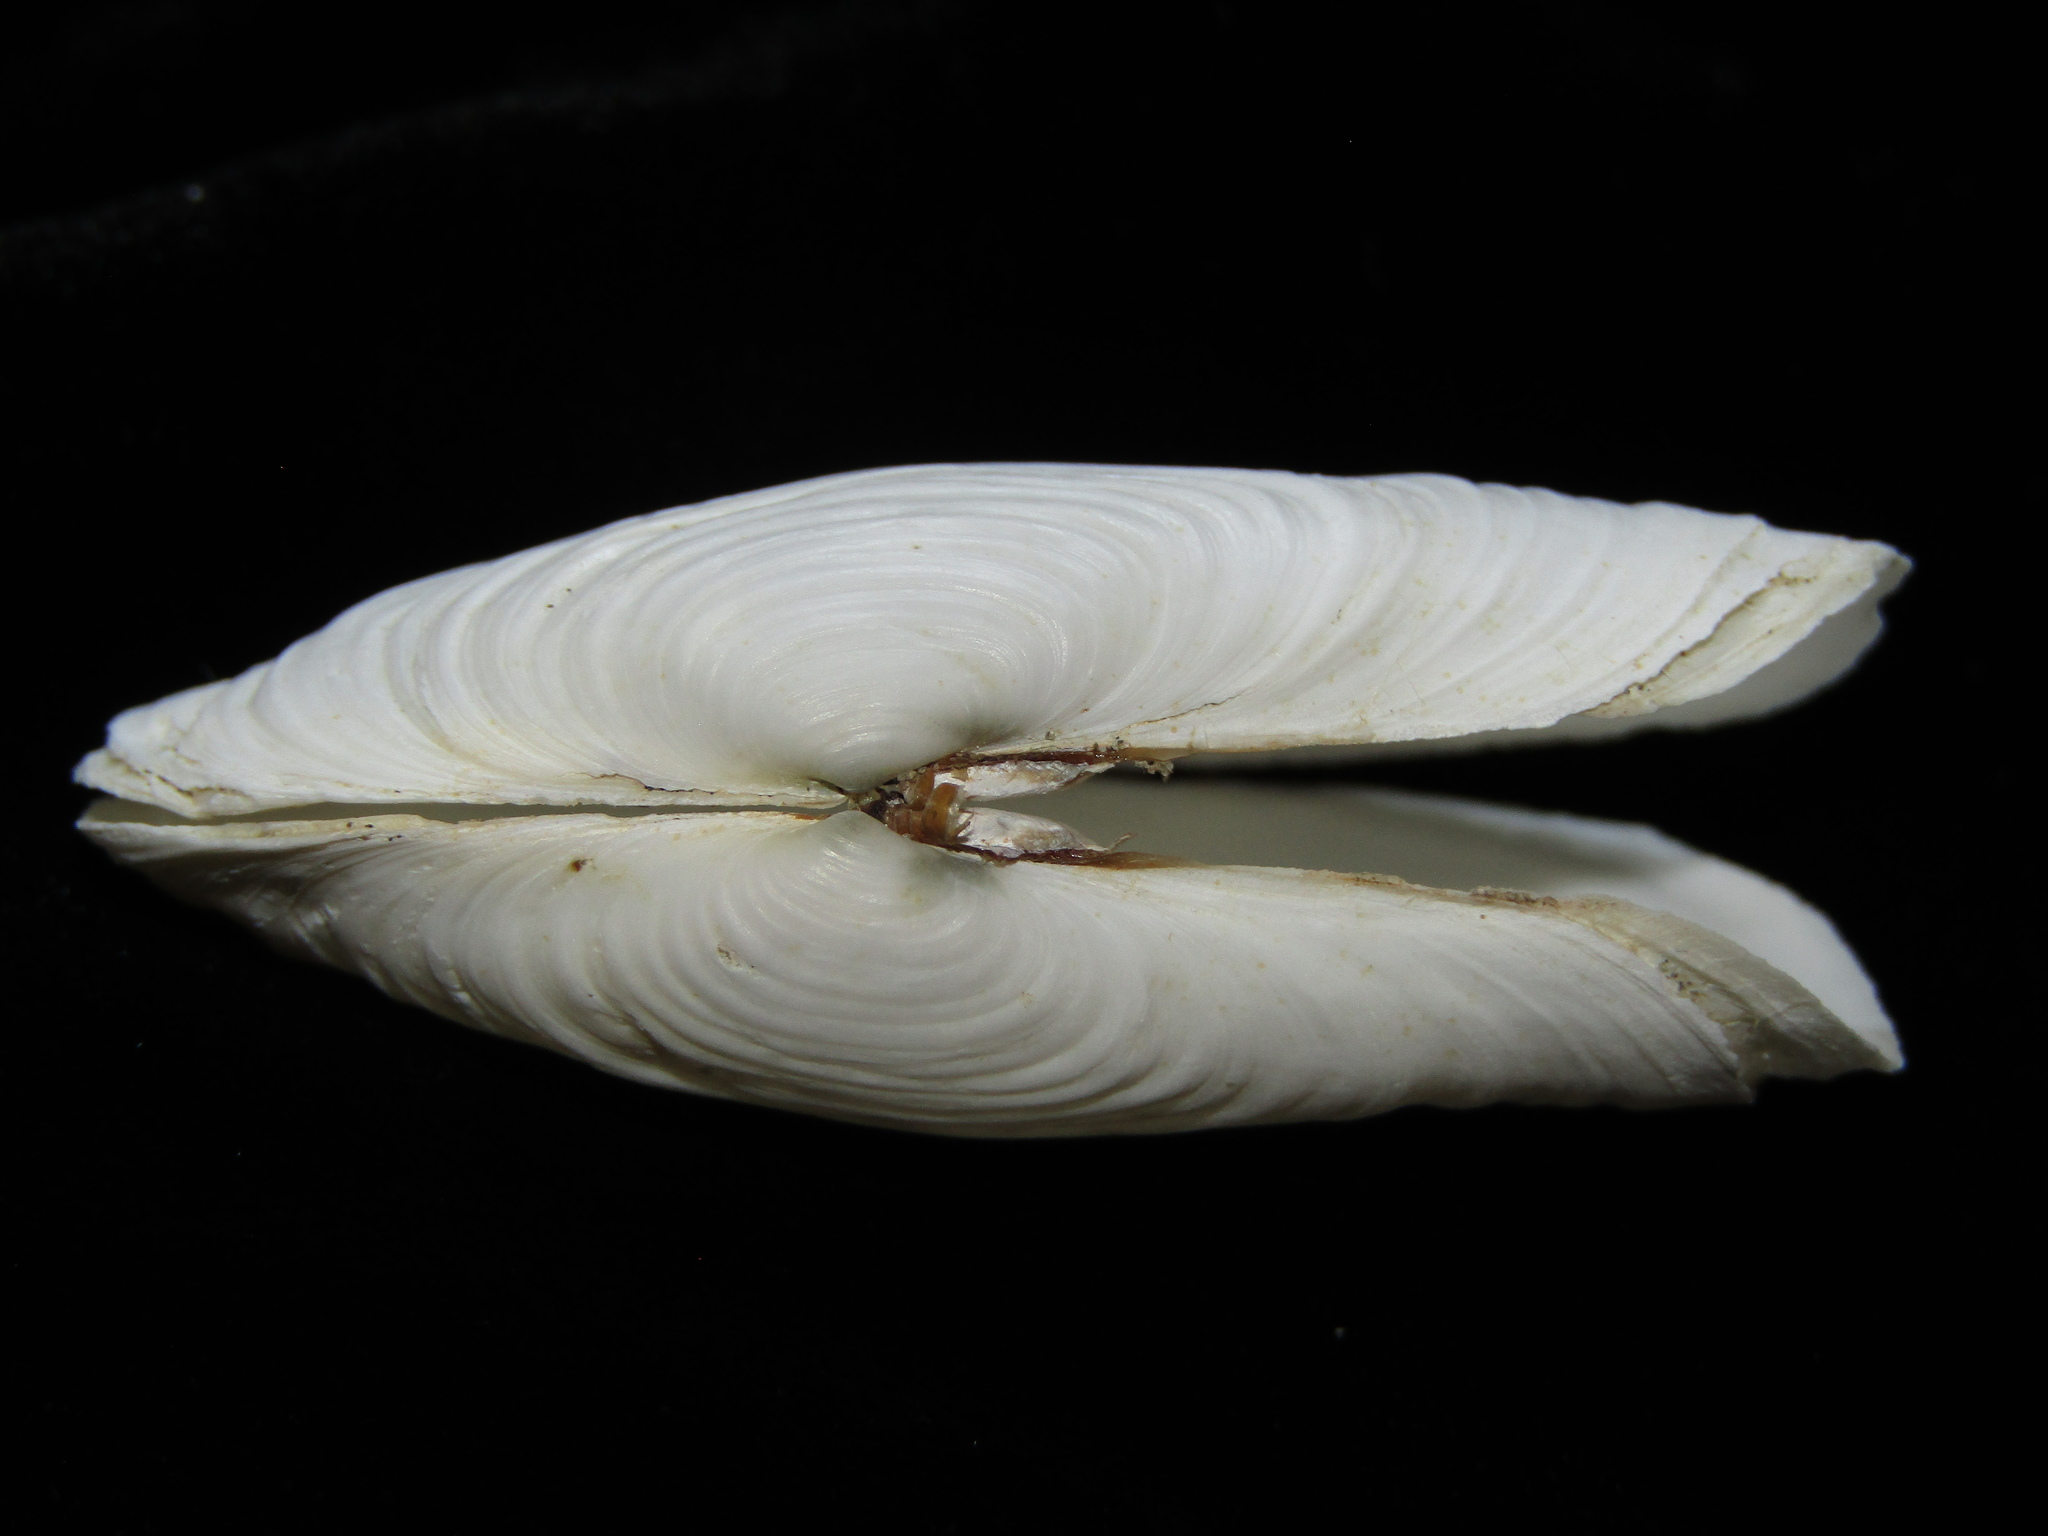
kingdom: Animalia
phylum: Mollusca
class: Bivalvia
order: Adapedonta
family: Hiatellidae
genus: Panopea
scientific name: Panopea zelandica
